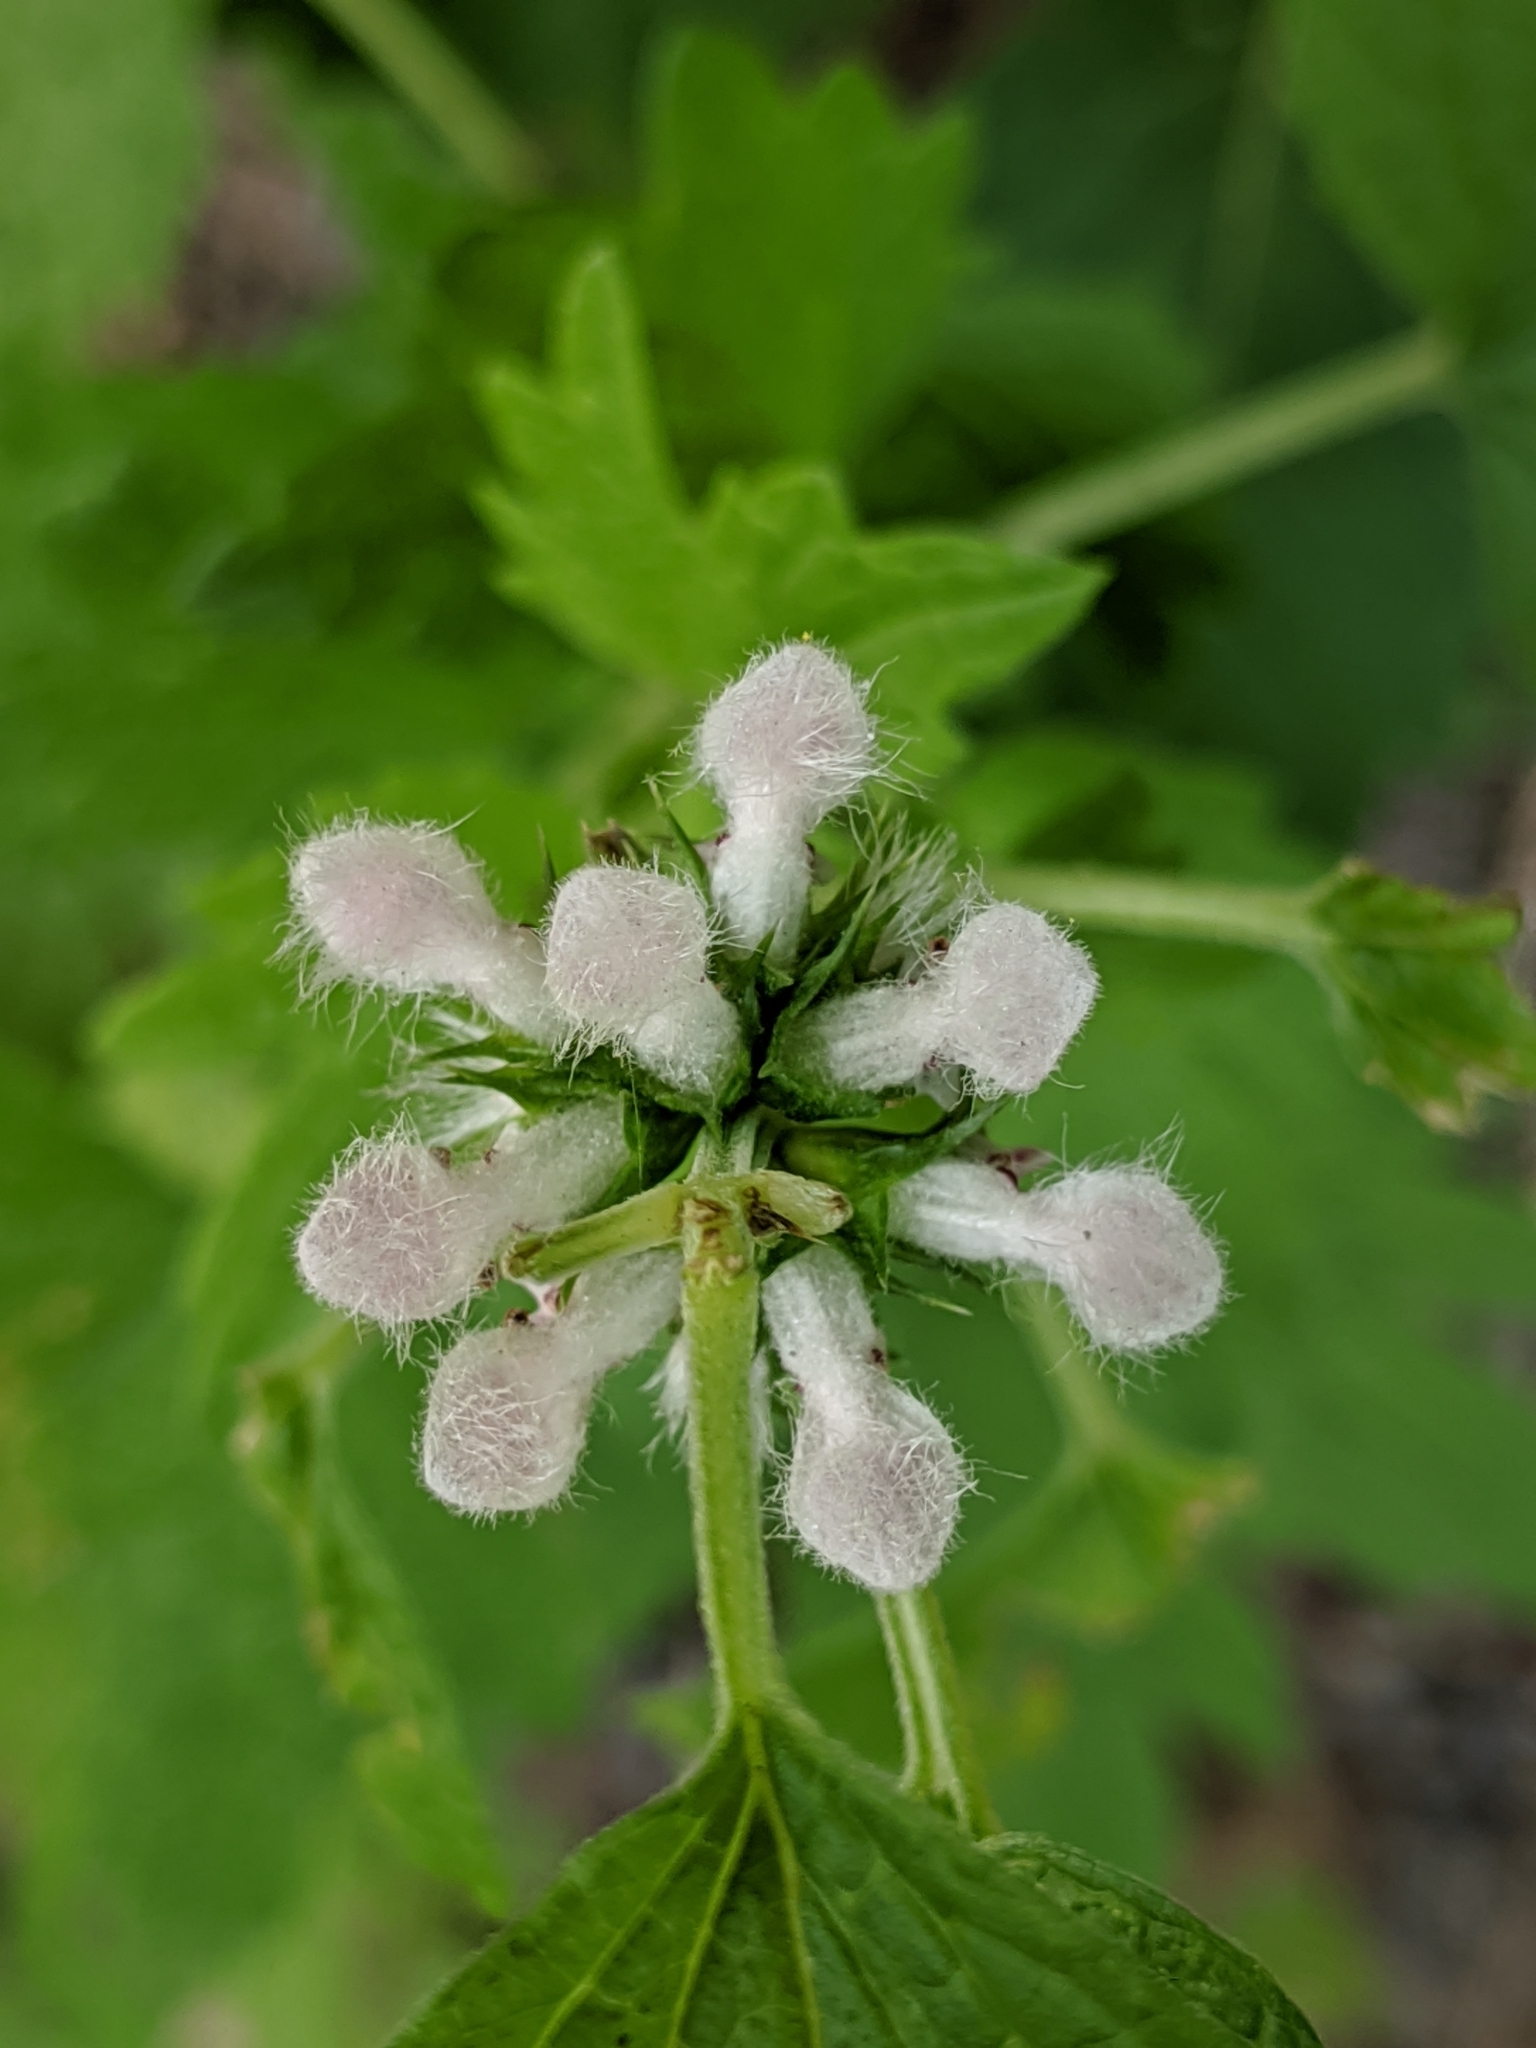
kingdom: Plantae
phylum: Tracheophyta
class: Magnoliopsida
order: Lamiales
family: Lamiaceae
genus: Leonurus
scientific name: Leonurus cardiaca
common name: Motherwort
